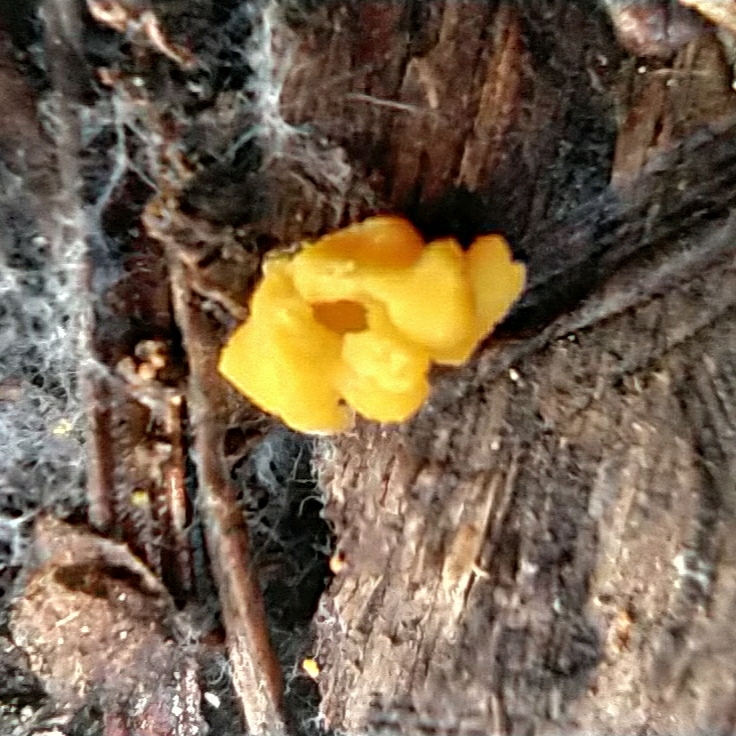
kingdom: Fungi
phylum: Basidiomycota
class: Tremellomycetes
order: Tremellales
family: Tremellaceae
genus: Tremella
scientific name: Tremella mesenterica
